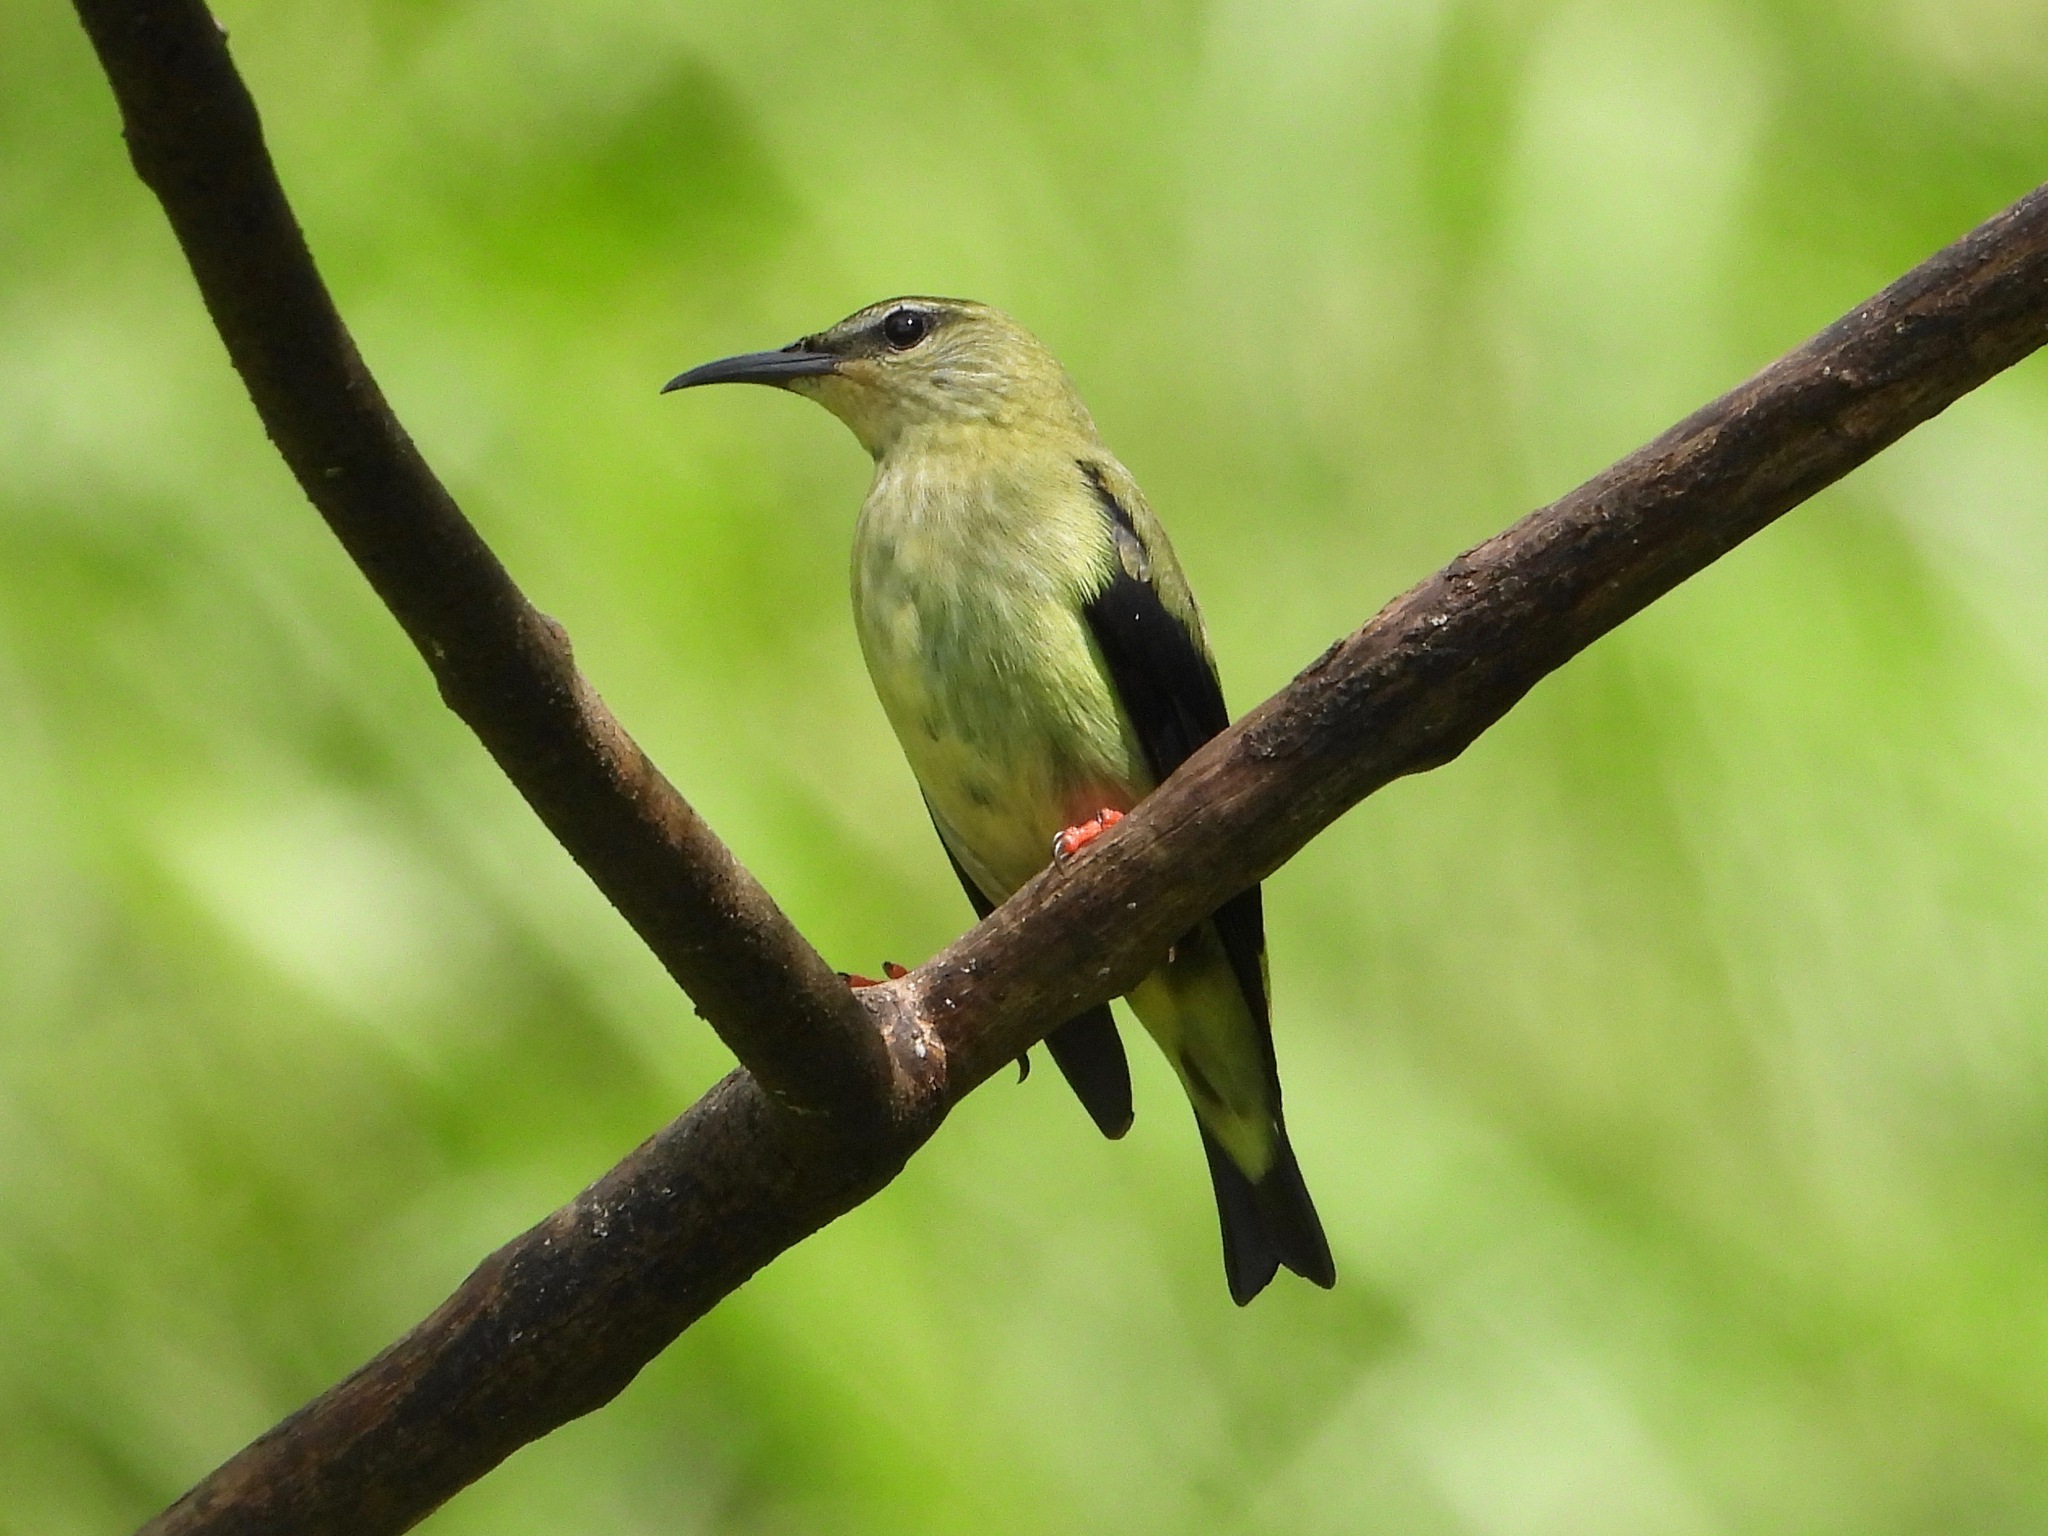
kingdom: Animalia
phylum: Chordata
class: Aves
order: Passeriformes
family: Thraupidae
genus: Cyanerpes
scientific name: Cyanerpes cyaneus
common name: Red-legged honeycreeper
